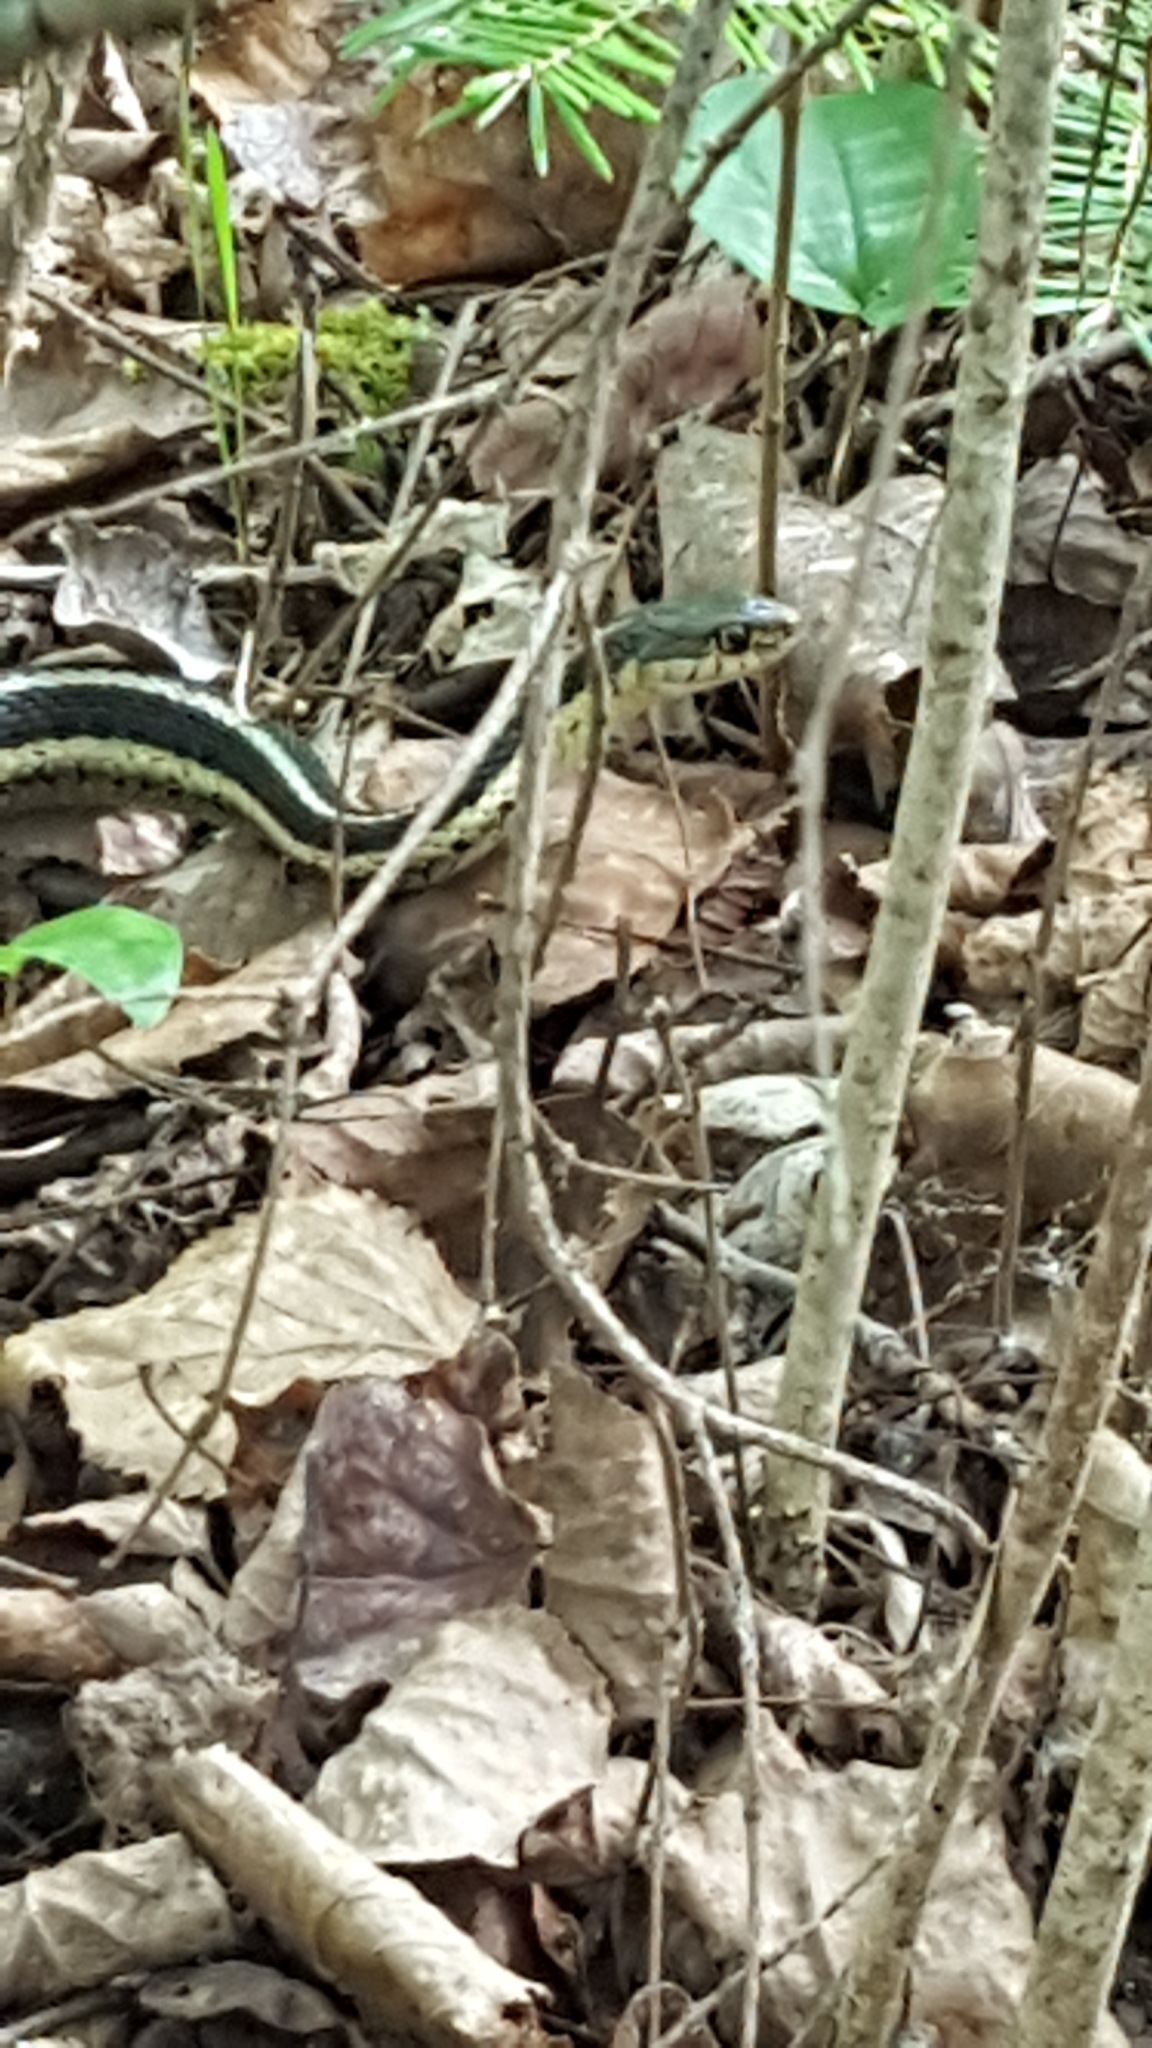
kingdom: Animalia
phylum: Chordata
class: Squamata
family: Colubridae
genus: Thamnophis
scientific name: Thamnophis sirtalis
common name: Common garter snake
